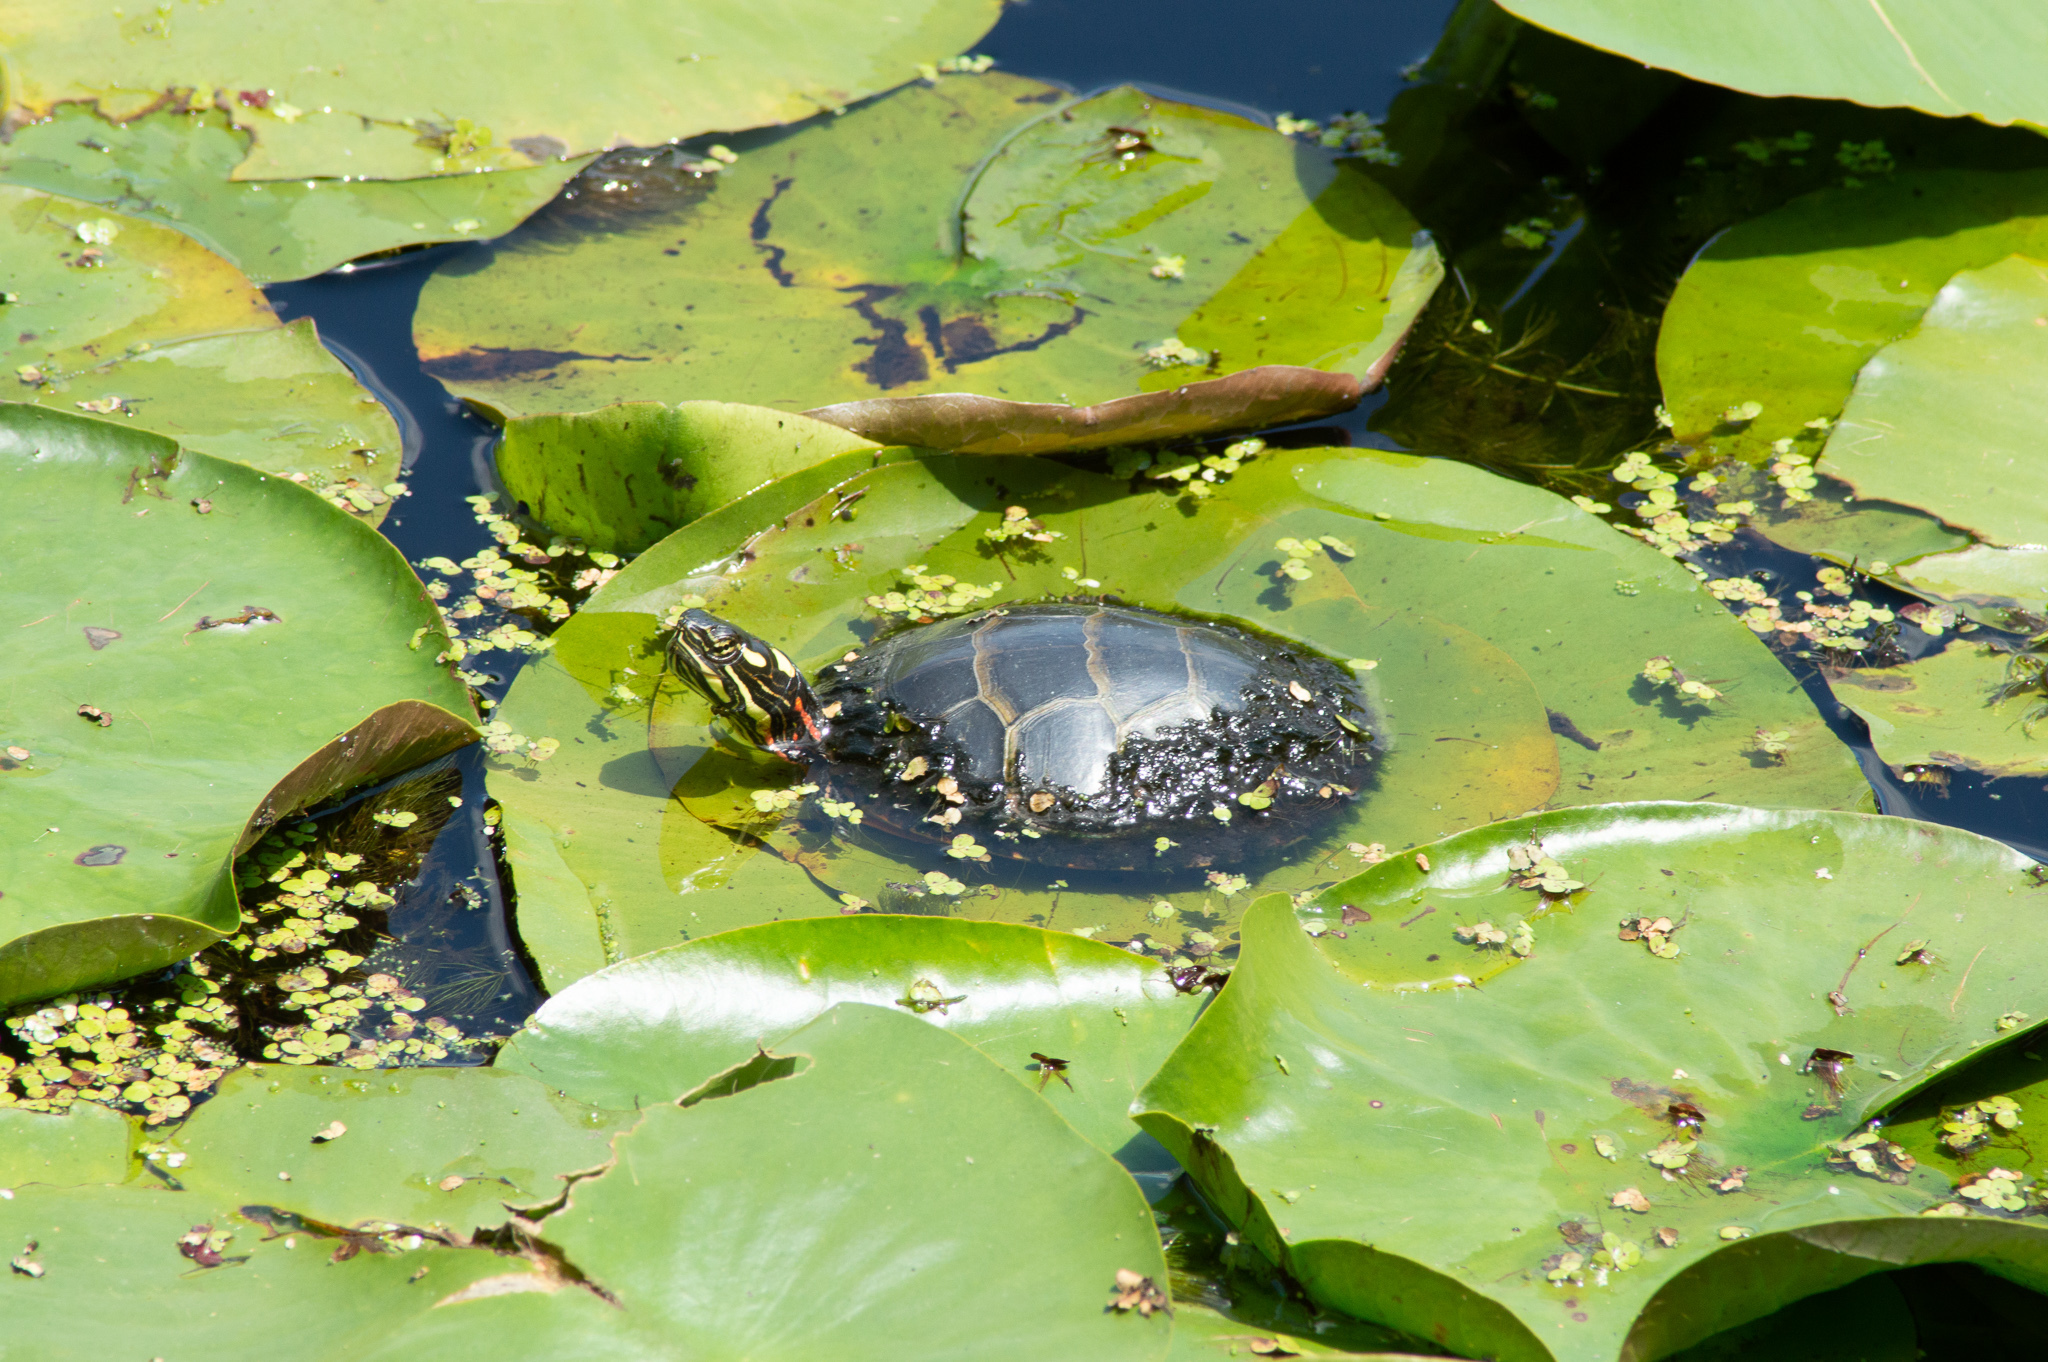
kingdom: Animalia
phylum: Chordata
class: Testudines
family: Emydidae
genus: Chrysemys
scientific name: Chrysemys picta
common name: Painted turtle
